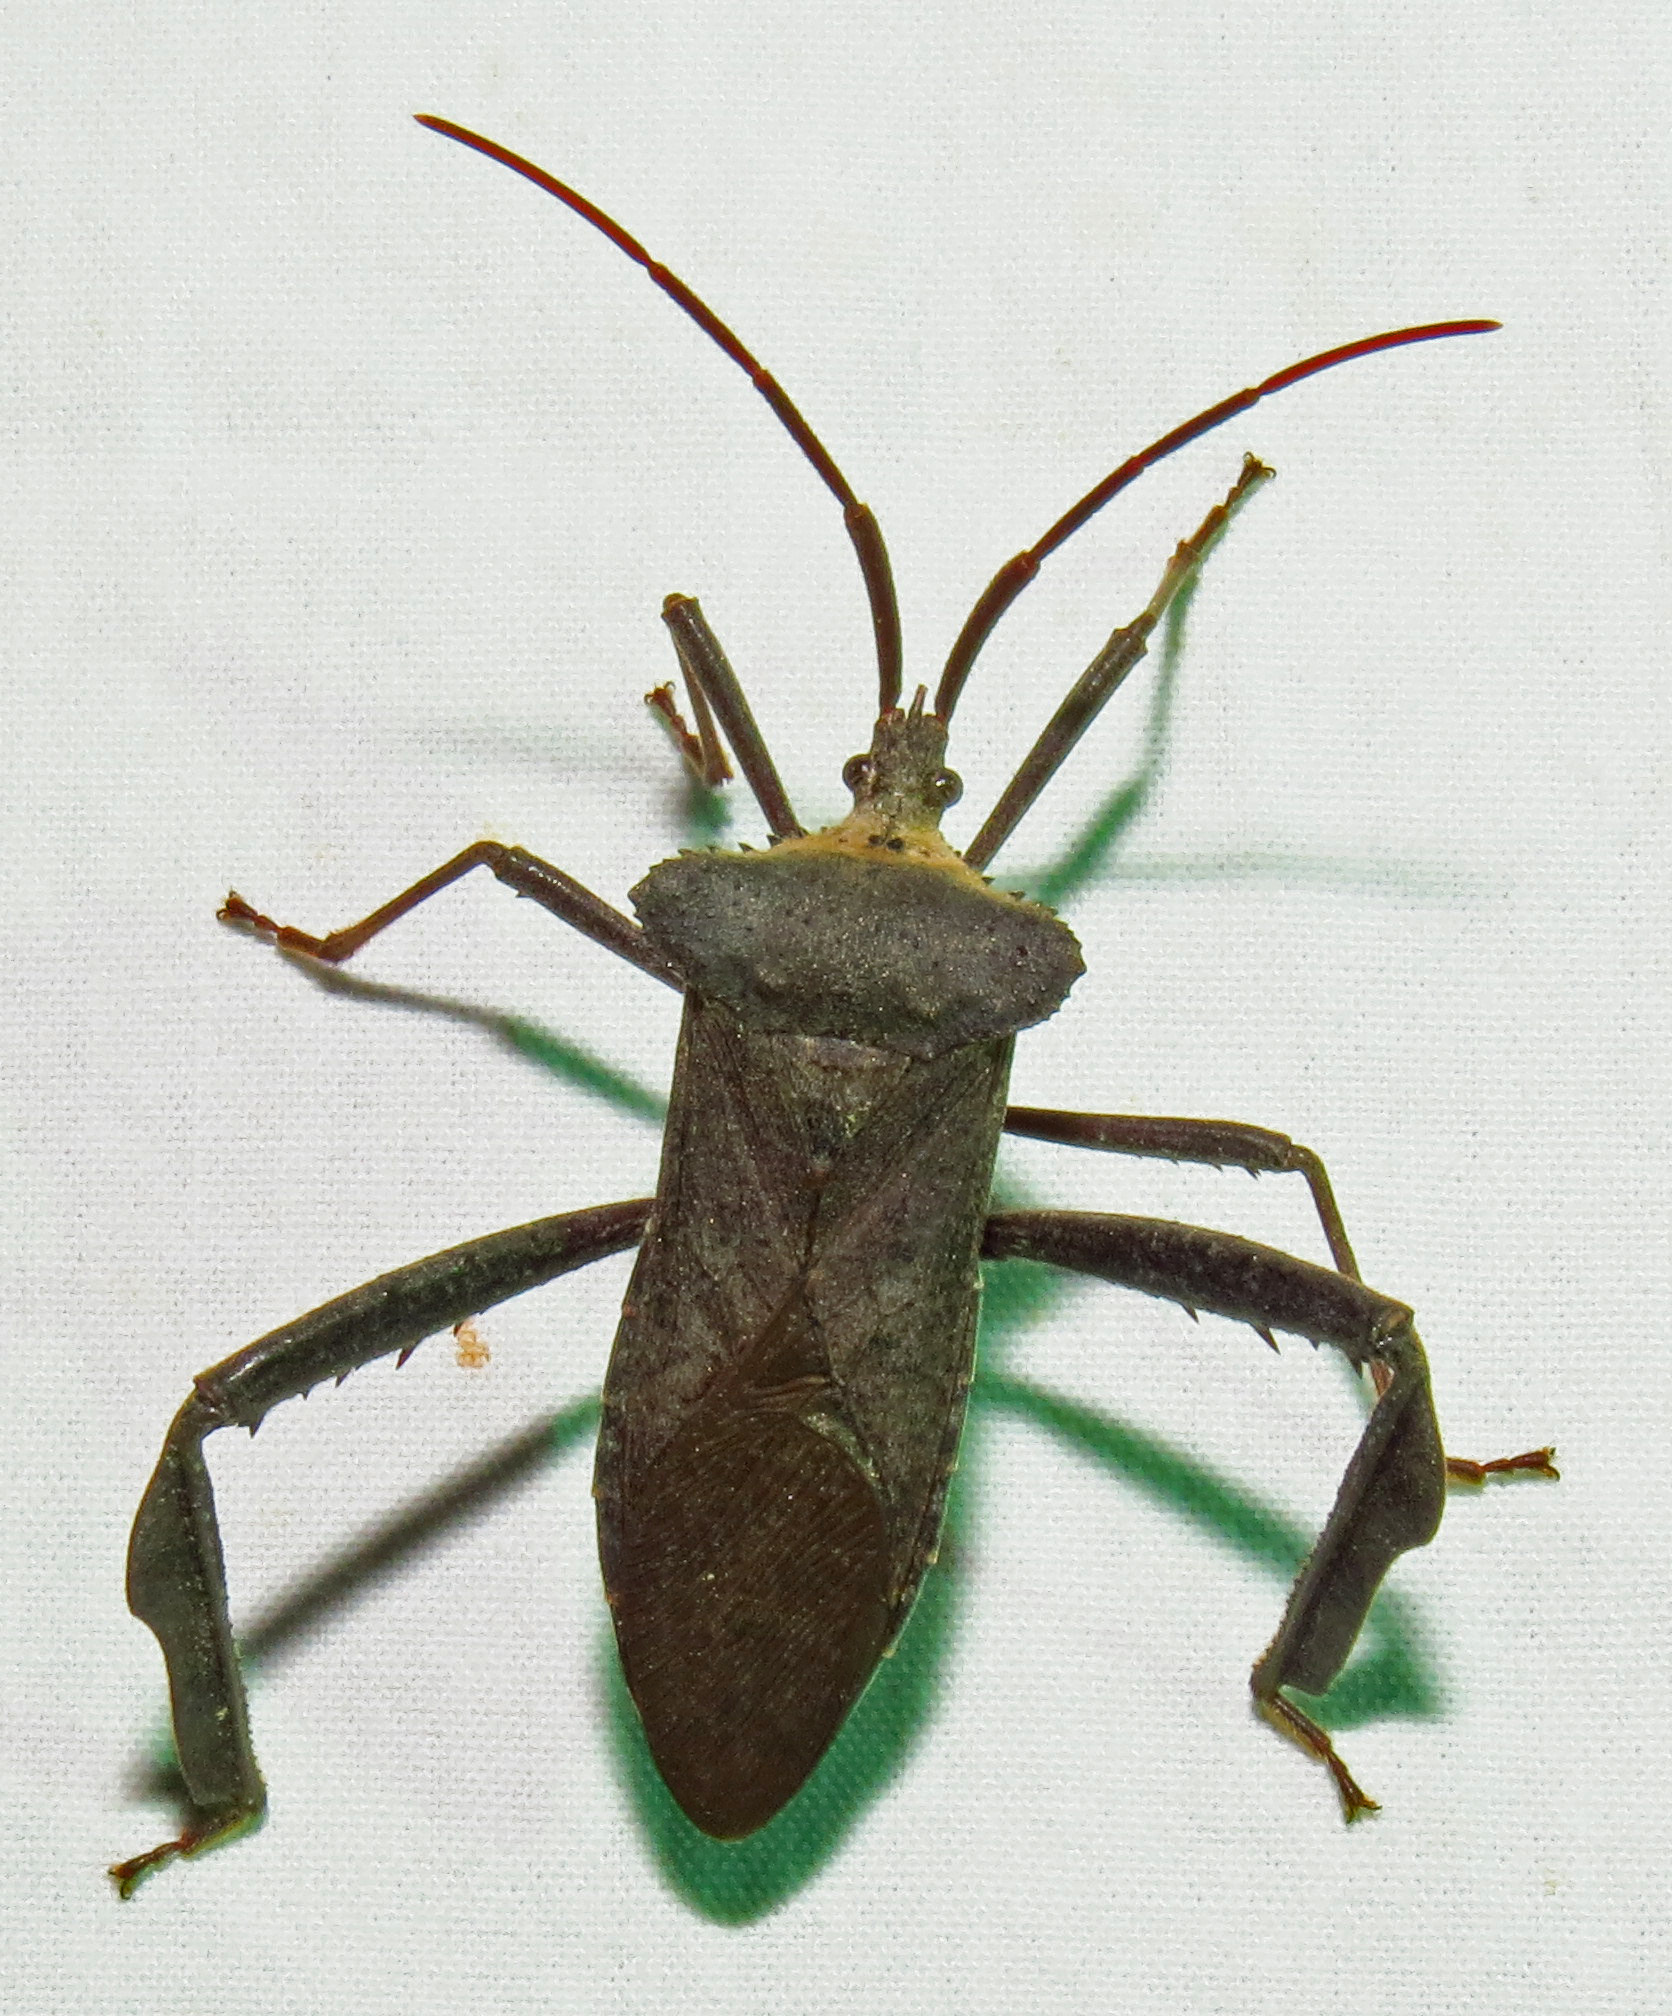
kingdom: Animalia
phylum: Arthropoda
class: Insecta
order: Hemiptera
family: Coreidae
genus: Acanthocephala
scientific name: Acanthocephala declivis
